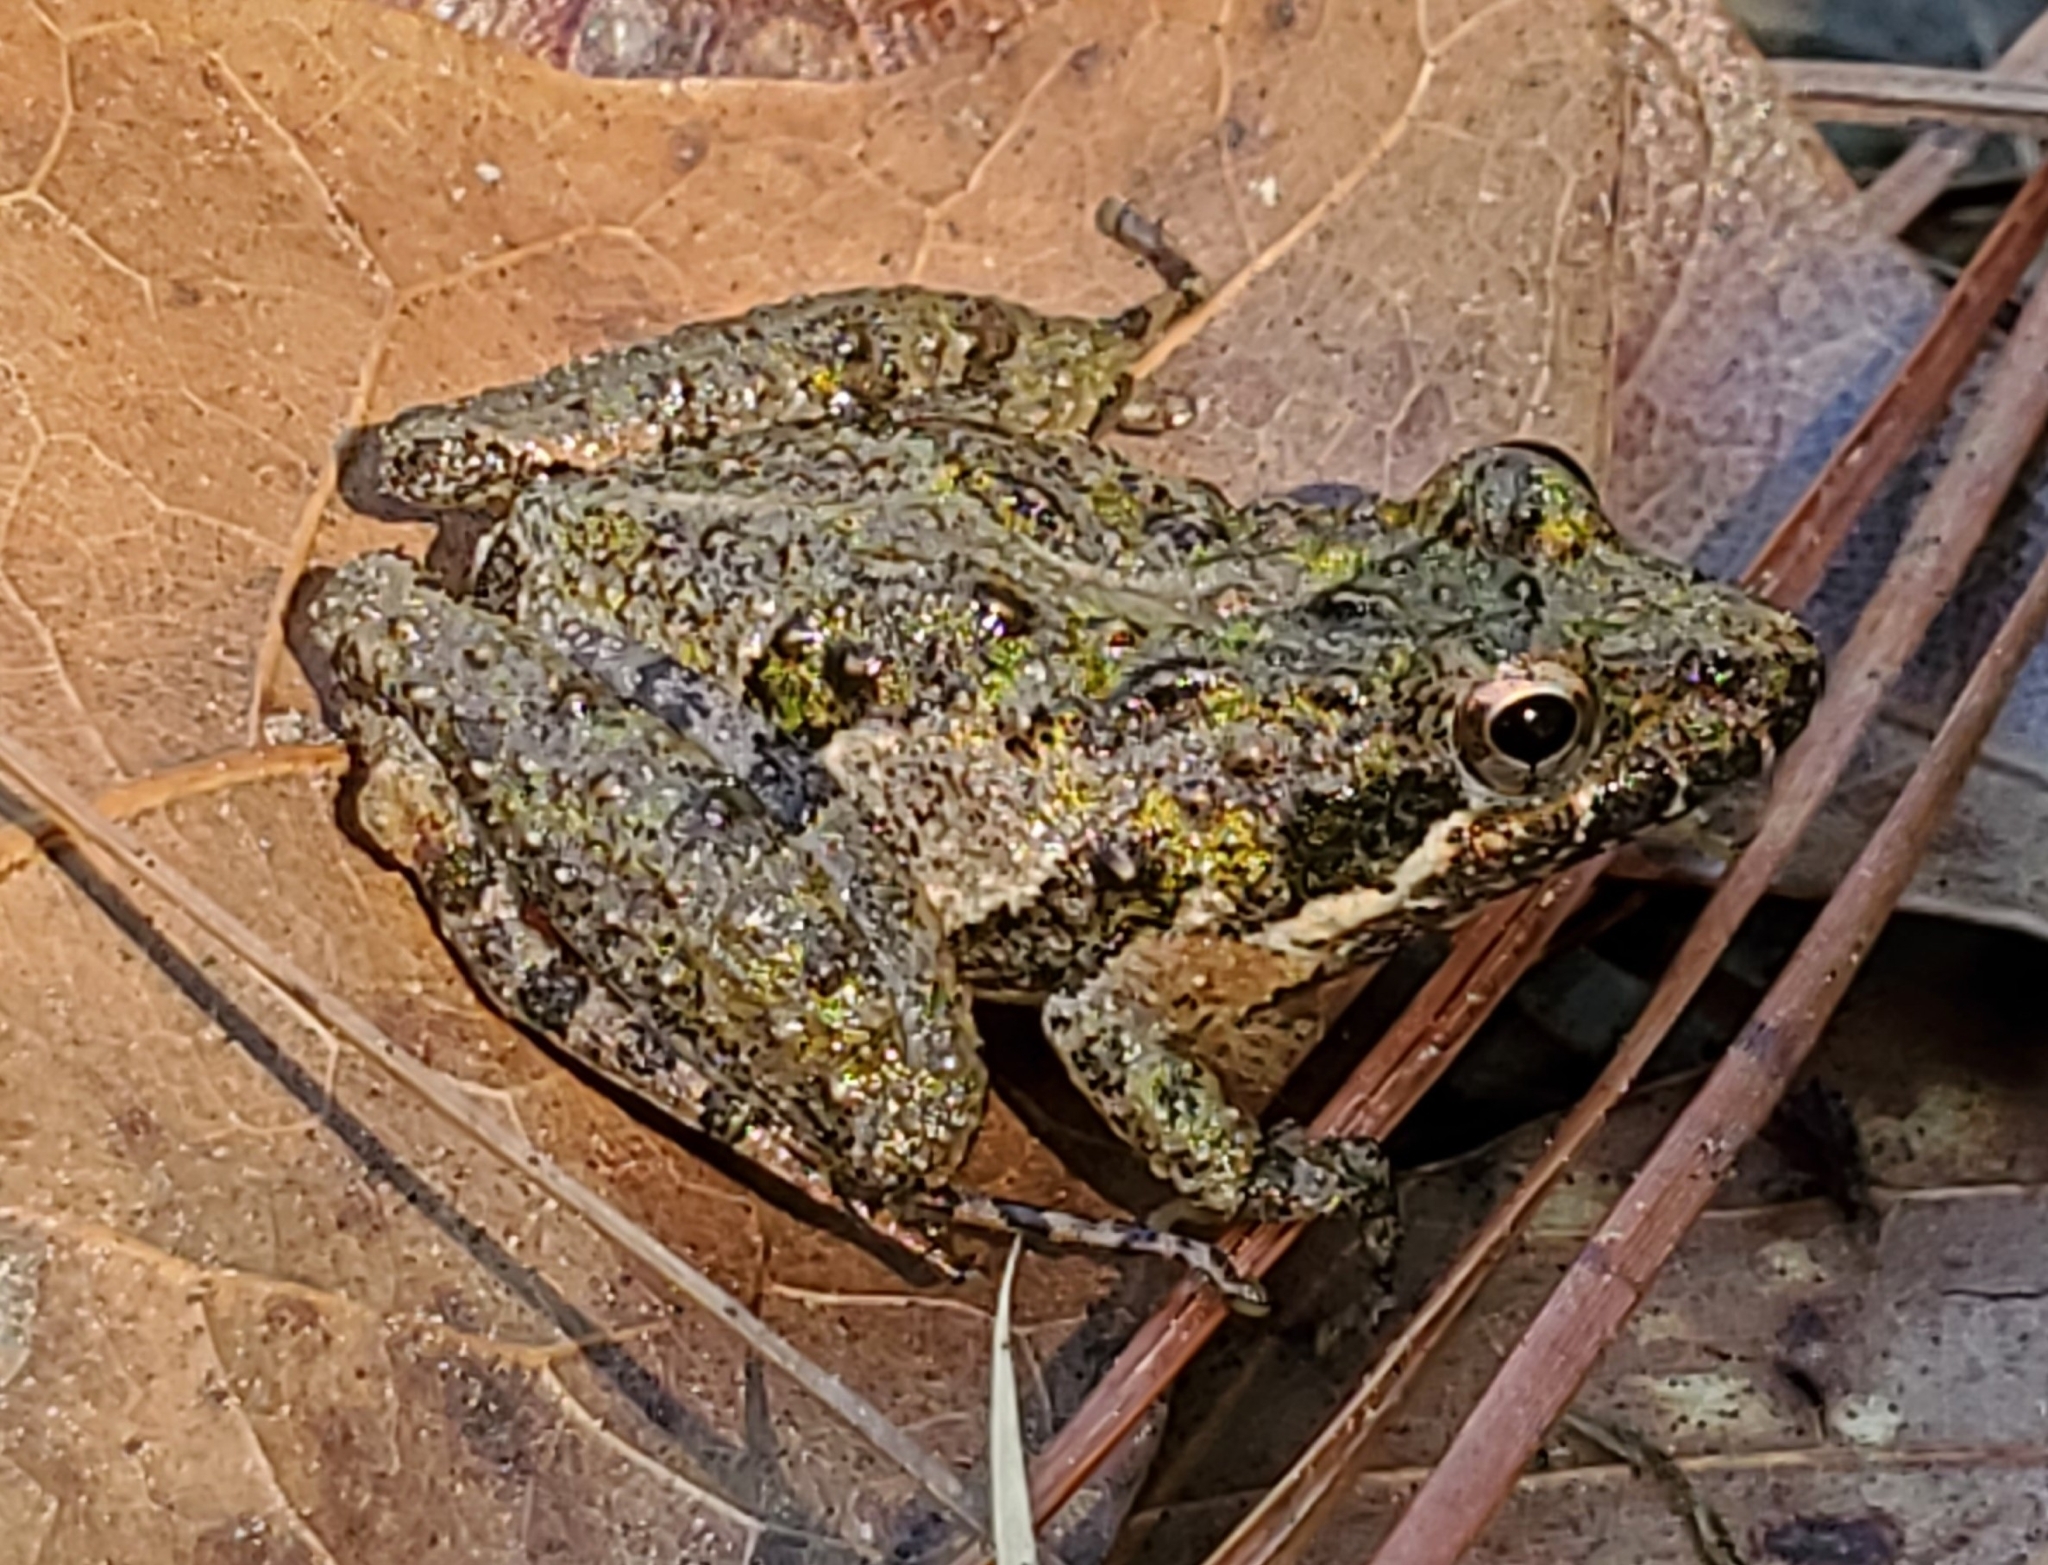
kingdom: Animalia
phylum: Chordata
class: Amphibia
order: Anura
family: Hylidae
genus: Acris
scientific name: Acris gryllus
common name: Southern cricket frog
